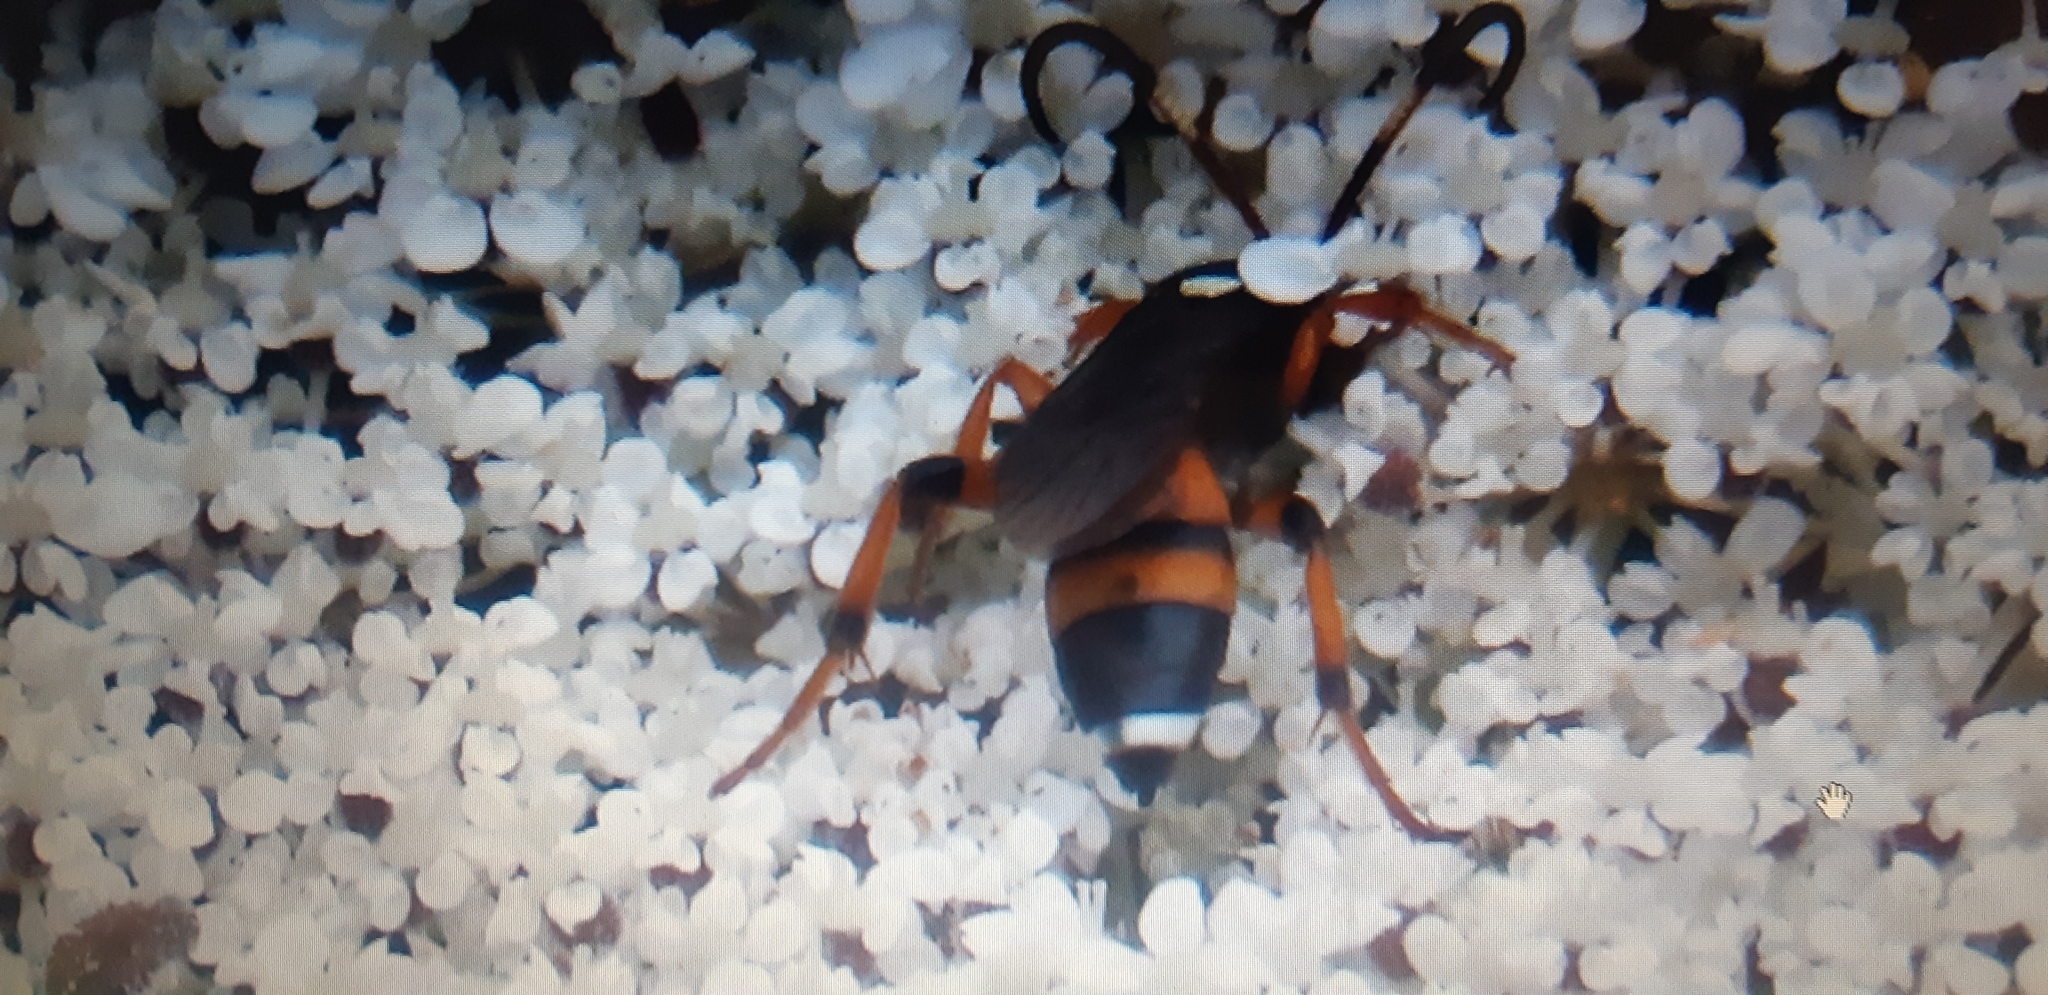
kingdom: Animalia
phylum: Arthropoda
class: Insecta
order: Hymenoptera
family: Ichneumonidae
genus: Ichneumon
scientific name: Ichneumon sarcitorius
